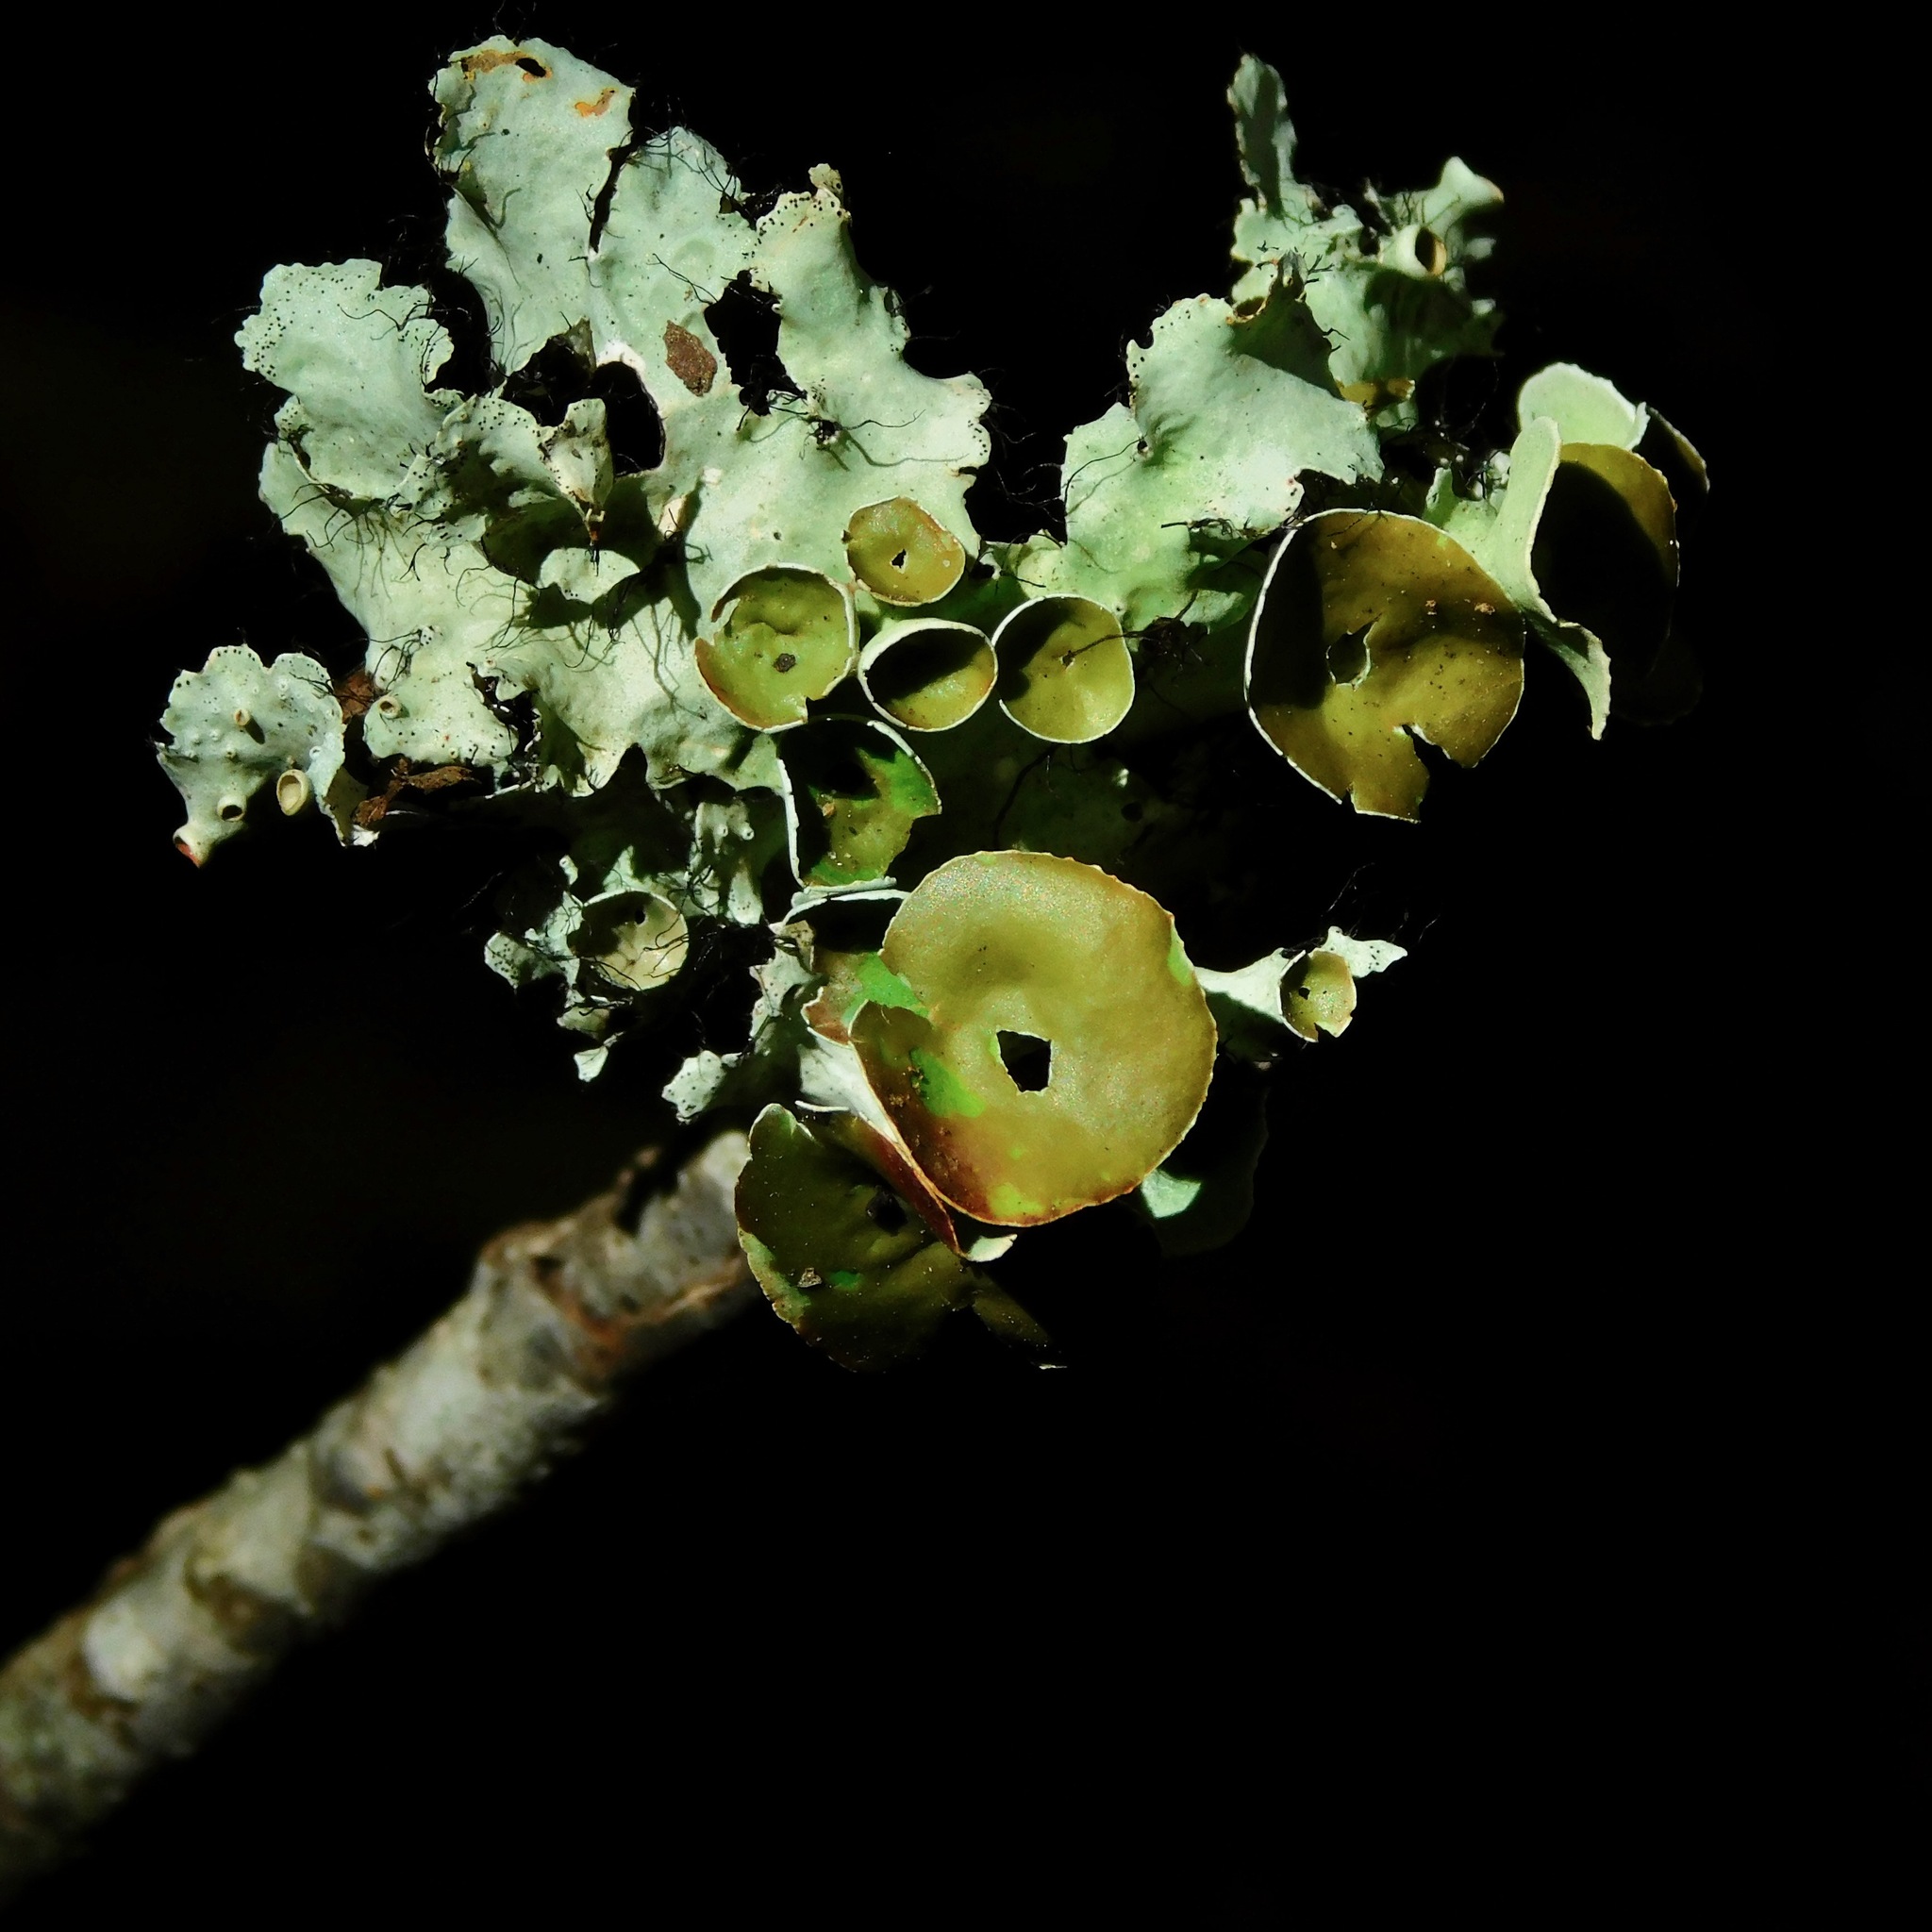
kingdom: Fungi
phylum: Ascomycota
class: Lecanoromycetes
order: Lecanorales
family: Parmeliaceae
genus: Parmotrema
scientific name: Parmotrema perforatum
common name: Perforated ruffle lichen
